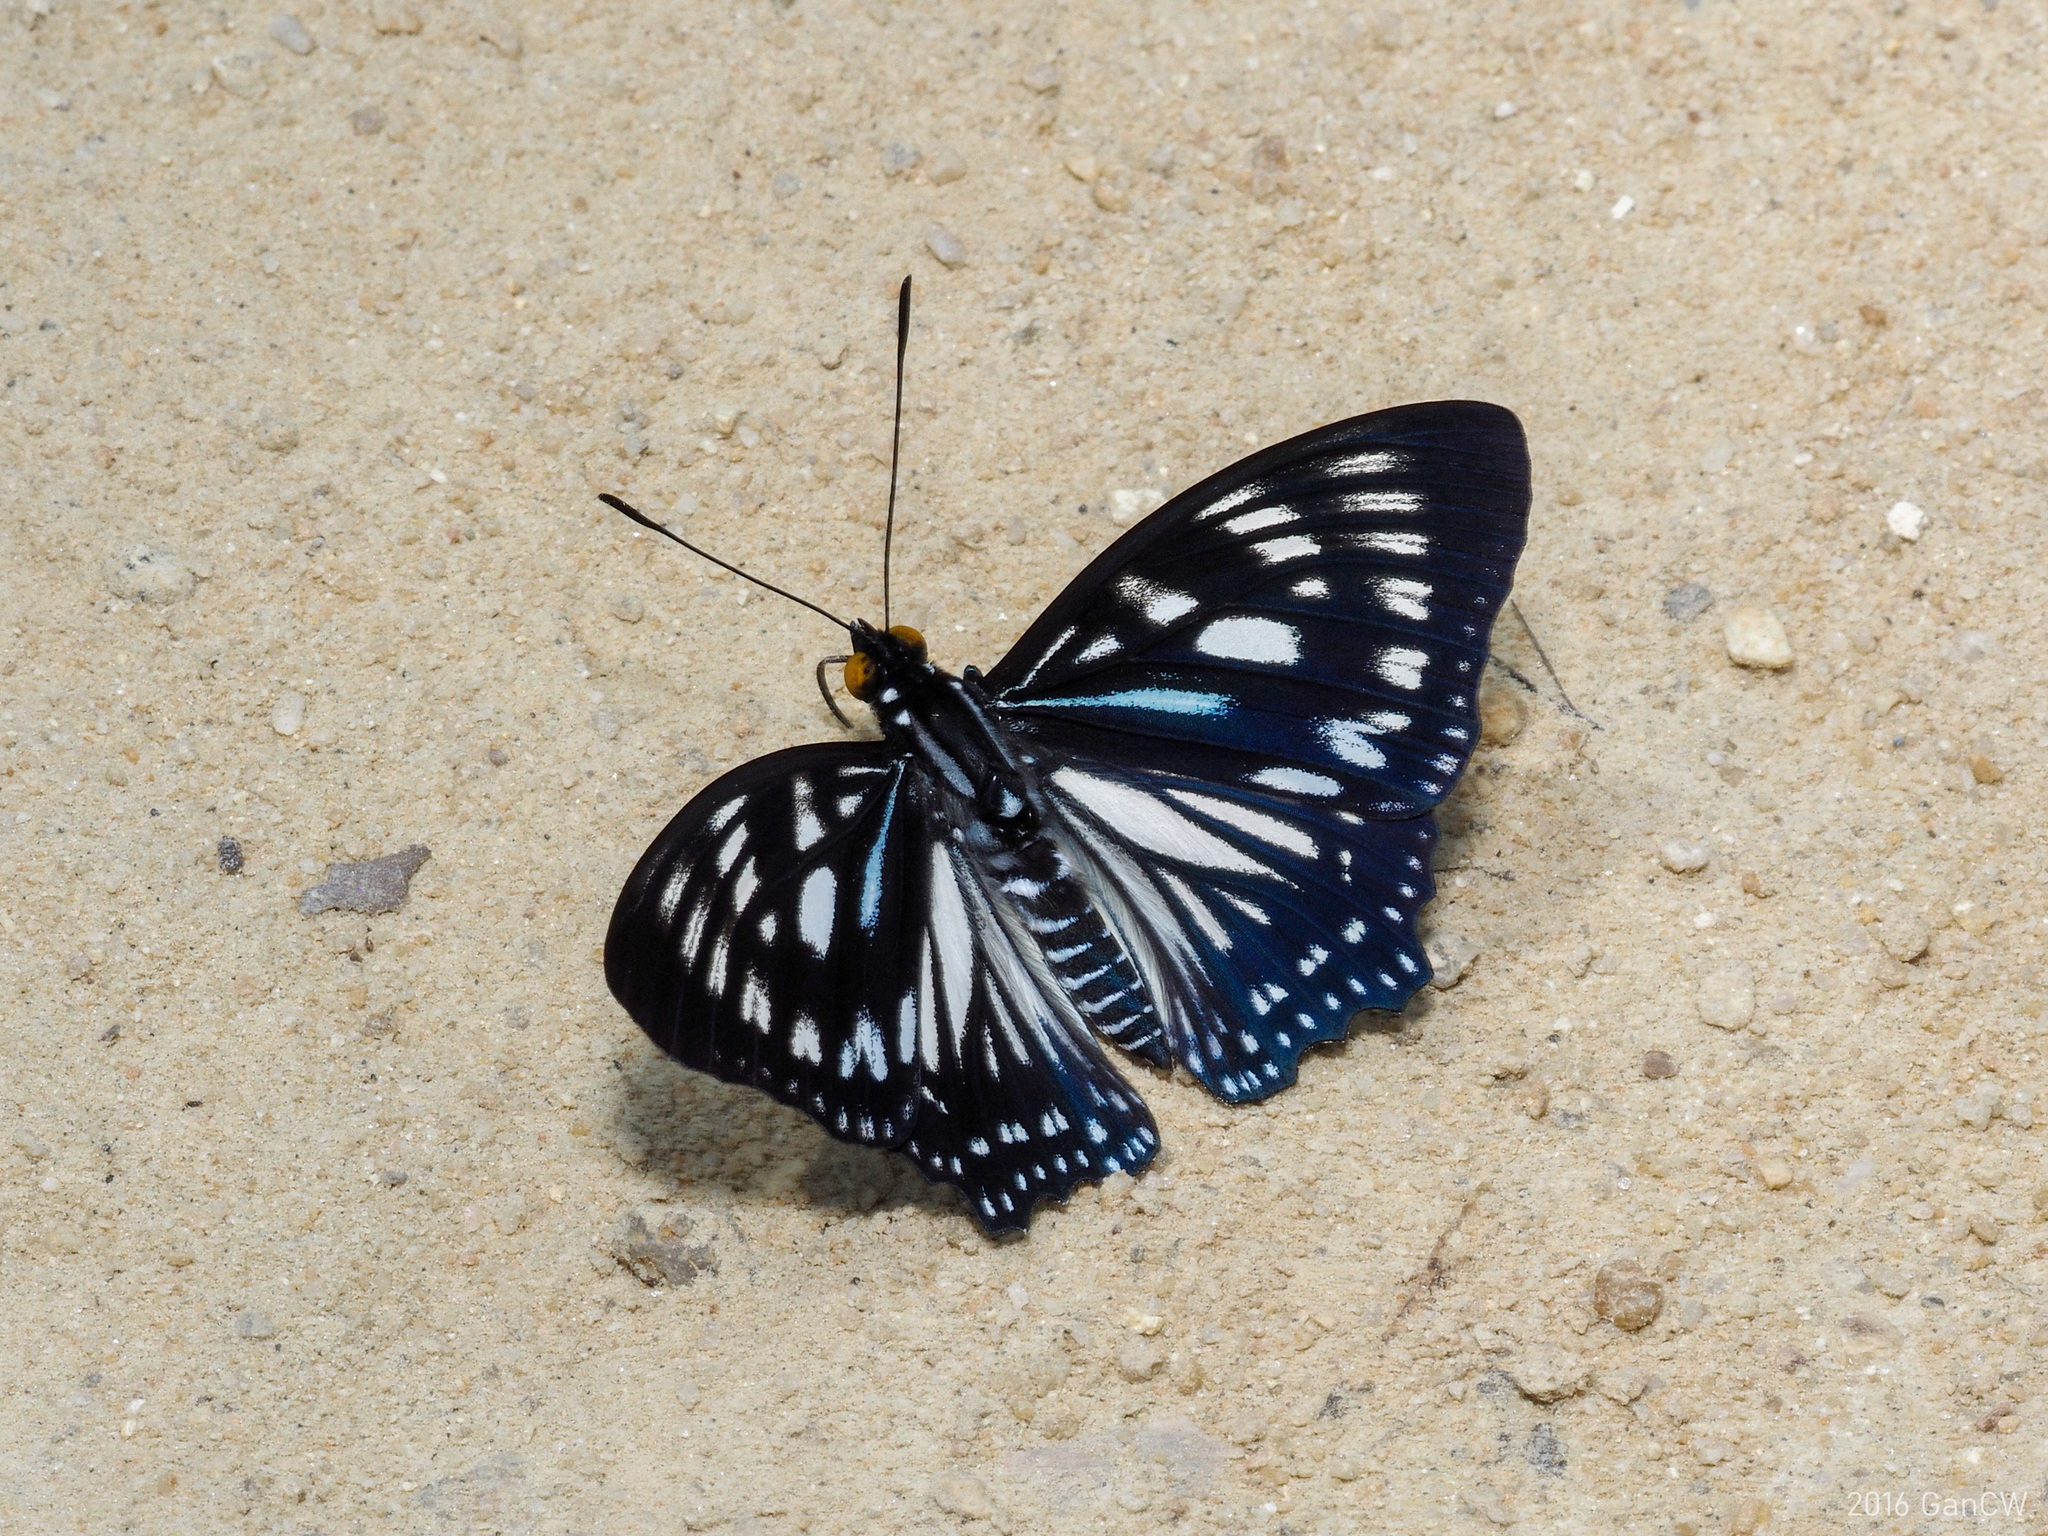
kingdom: Animalia
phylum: Arthropoda
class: Insecta
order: Lepidoptera
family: Nymphalidae
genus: Euripus
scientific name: Euripus nyctelius
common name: Courtesan
